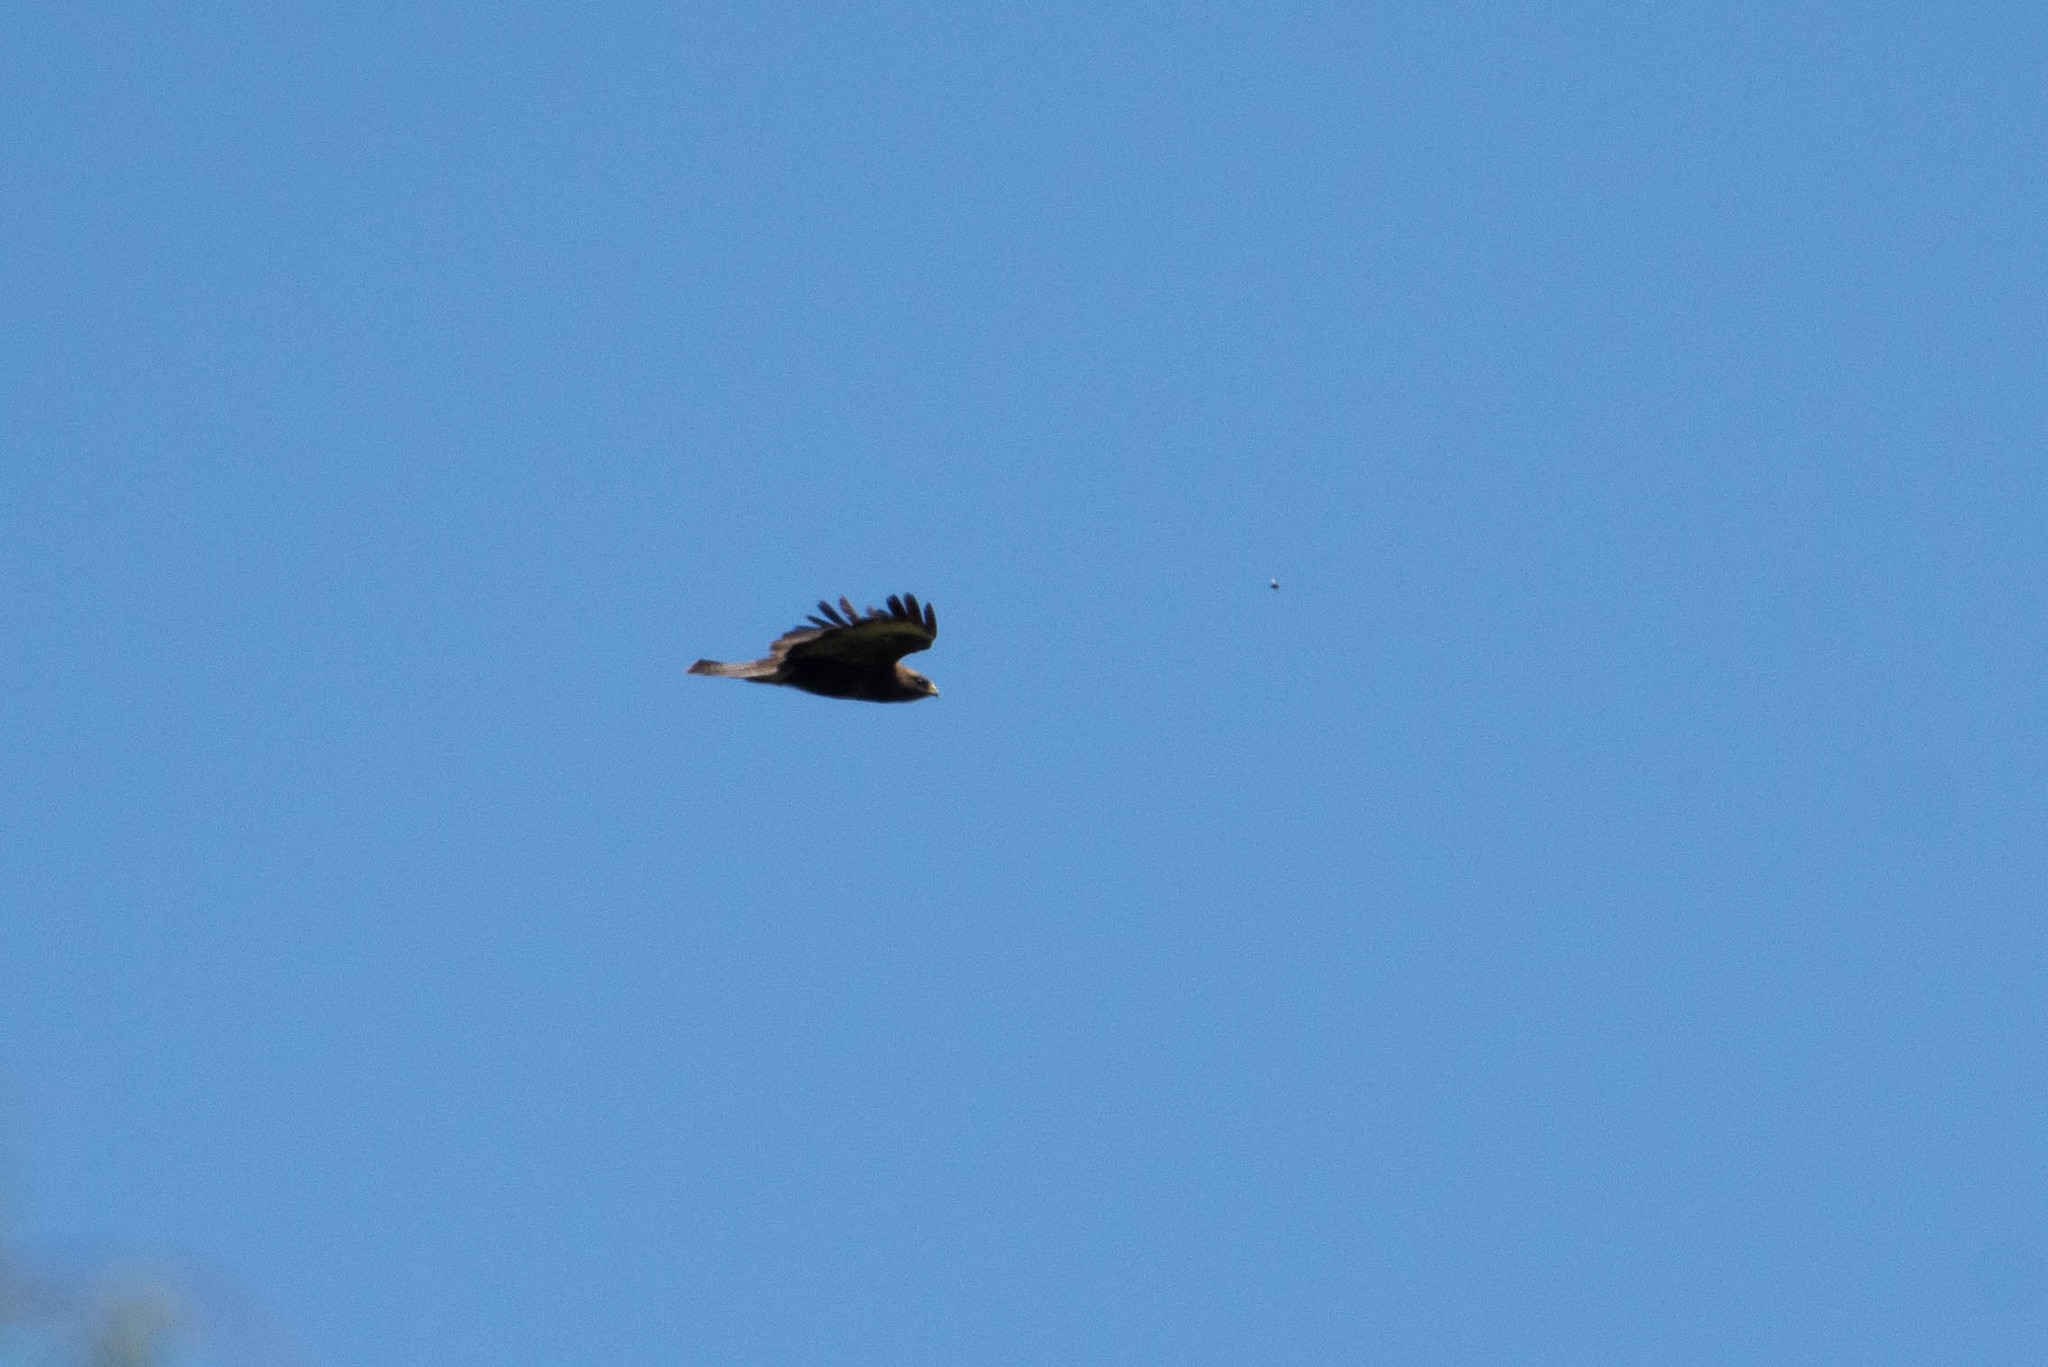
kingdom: Animalia
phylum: Chordata
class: Aves
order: Accipitriformes
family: Accipitridae
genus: Buteo
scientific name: Buteo buteo
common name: Common buzzard
